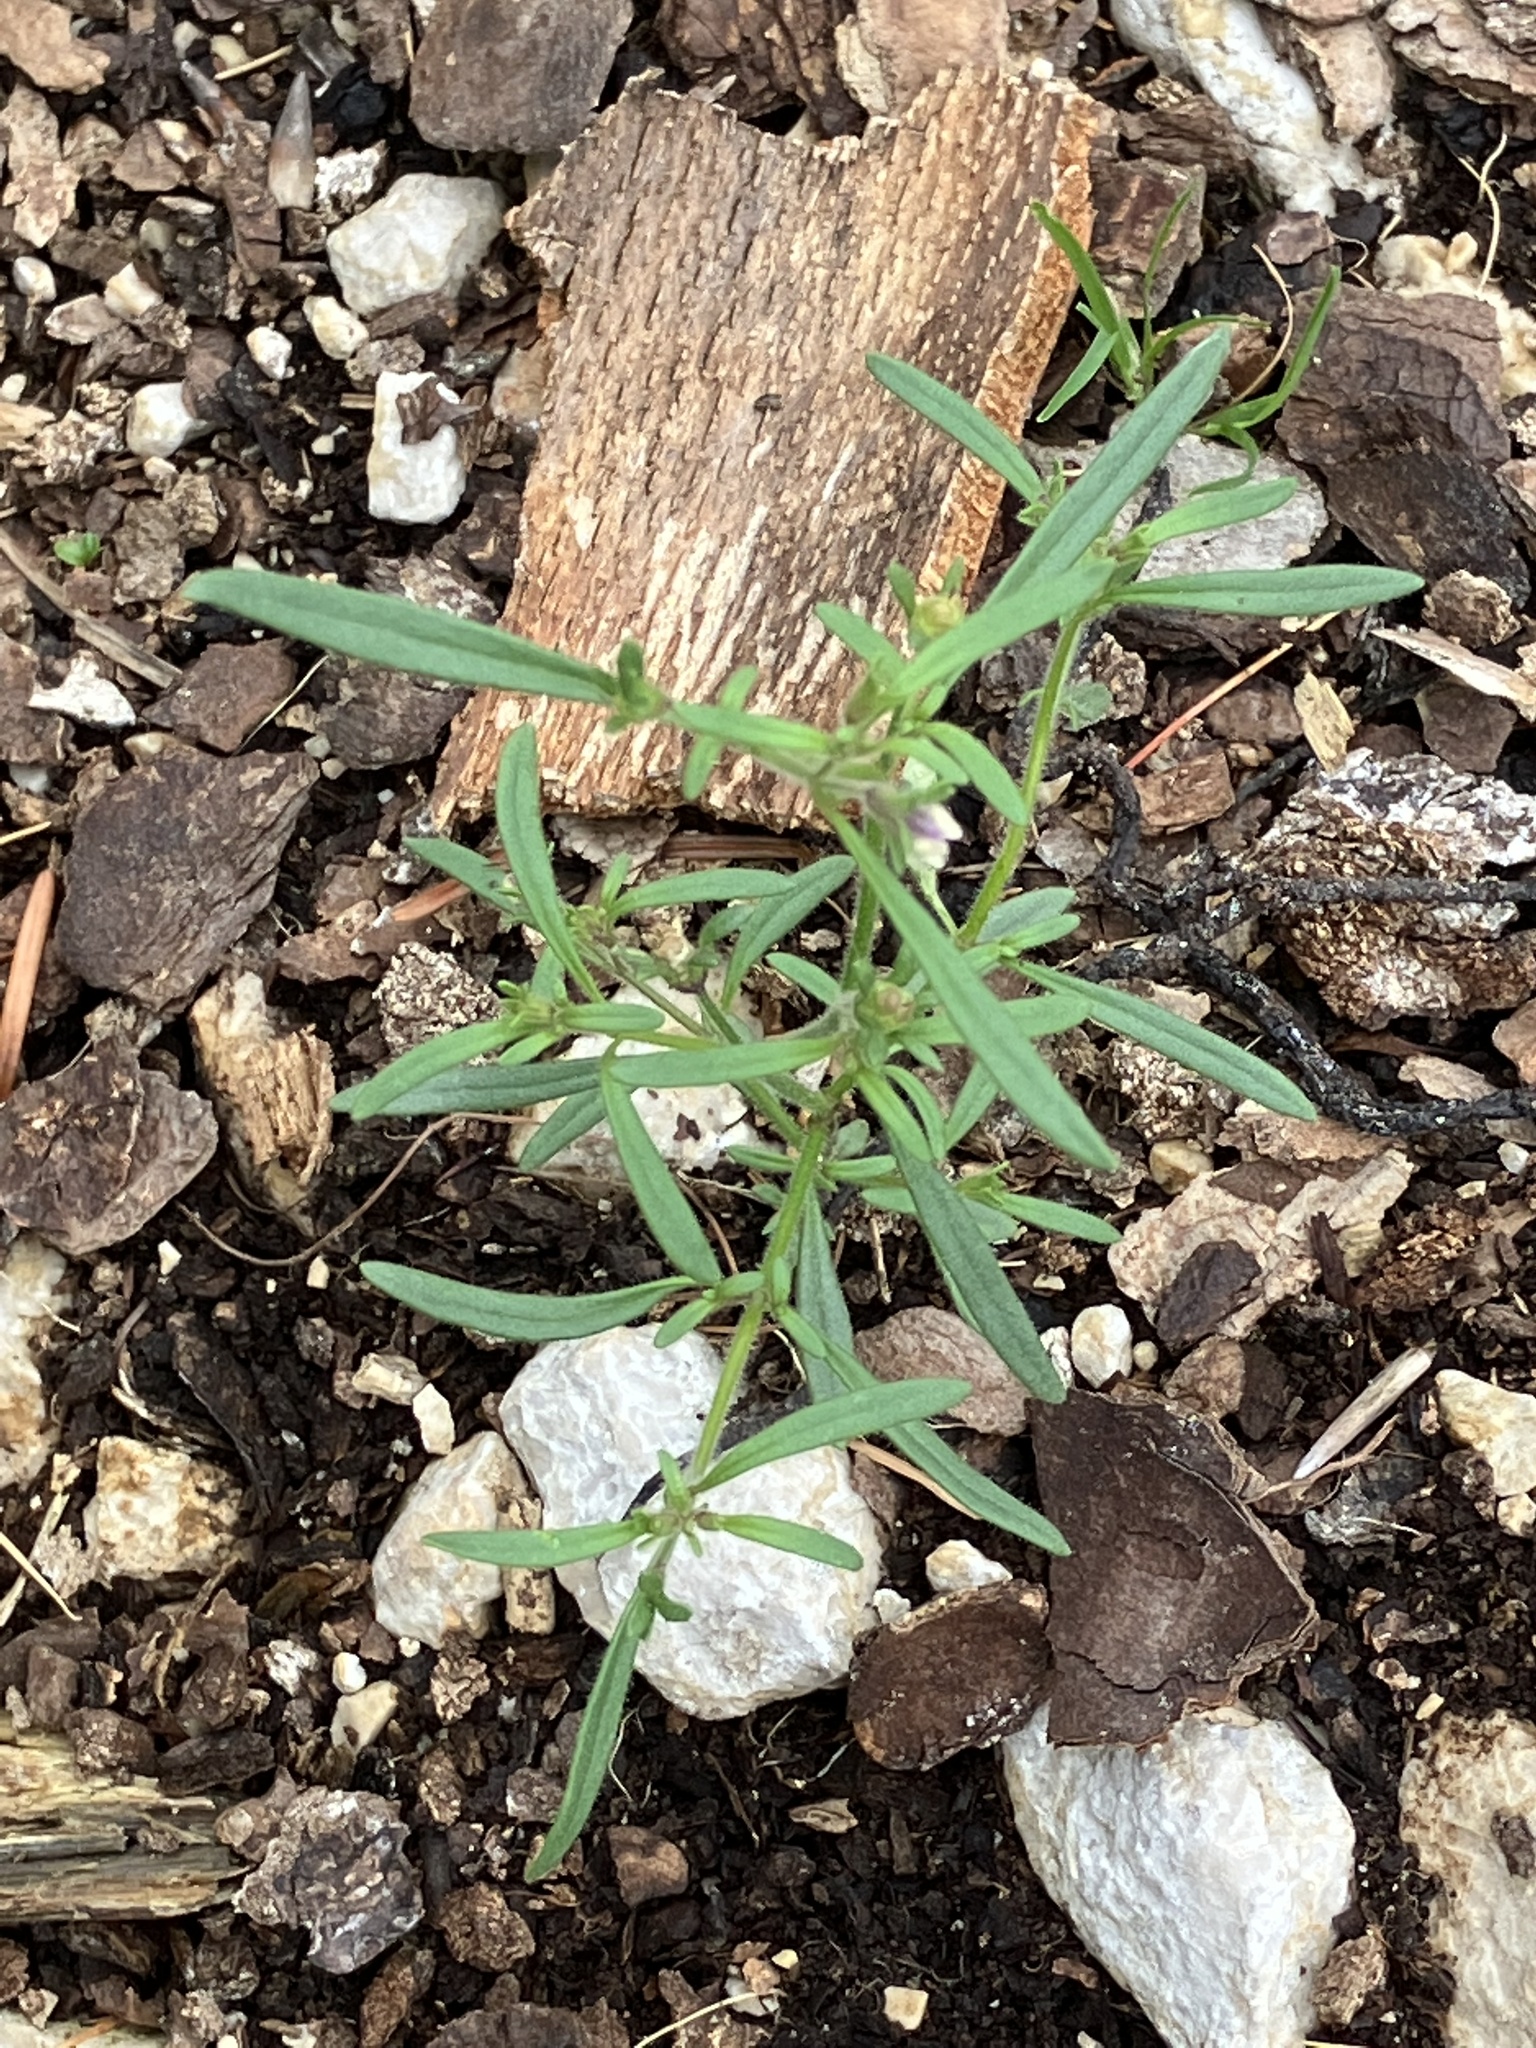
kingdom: Plantae
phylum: Tracheophyta
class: Magnoliopsida
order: Lamiales
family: Plantaginaceae
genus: Chaenorhinum
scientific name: Chaenorhinum minus
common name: Dwarf snapdragon
